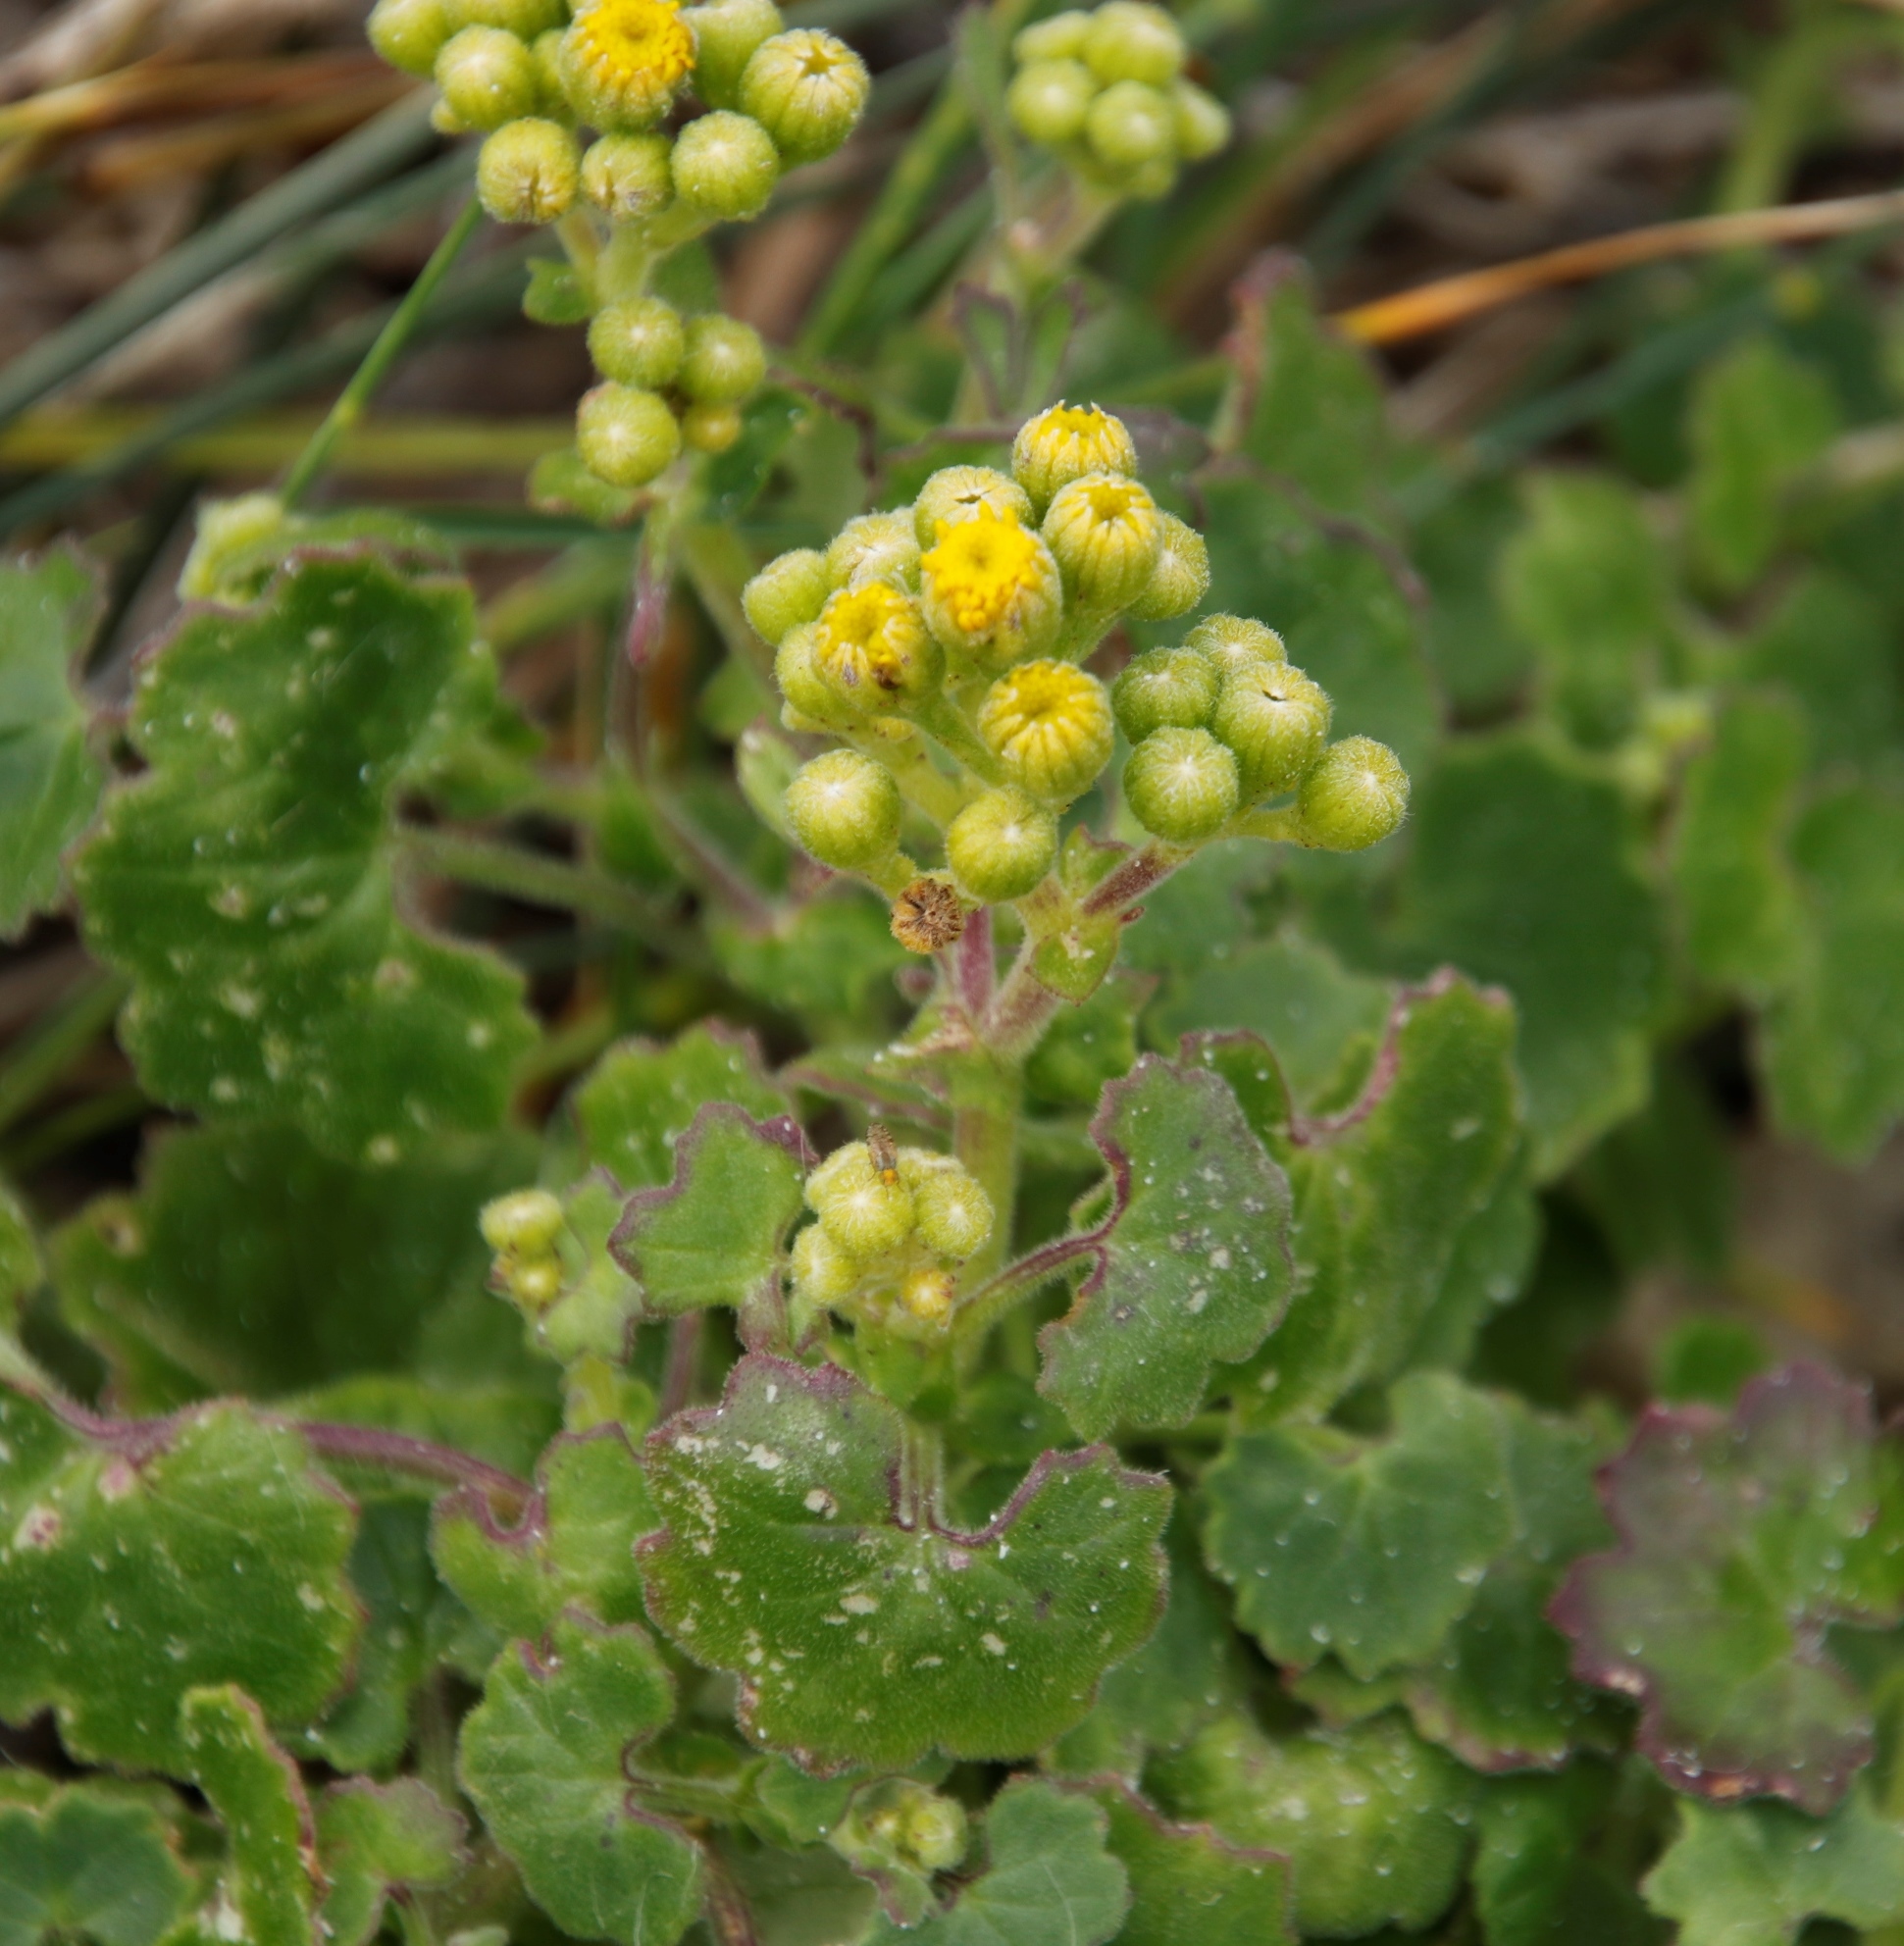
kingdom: Plantae
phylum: Tracheophyta
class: Magnoliopsida
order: Asterales
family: Asteraceae
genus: Cineraria
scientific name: Cineraria geifolia
